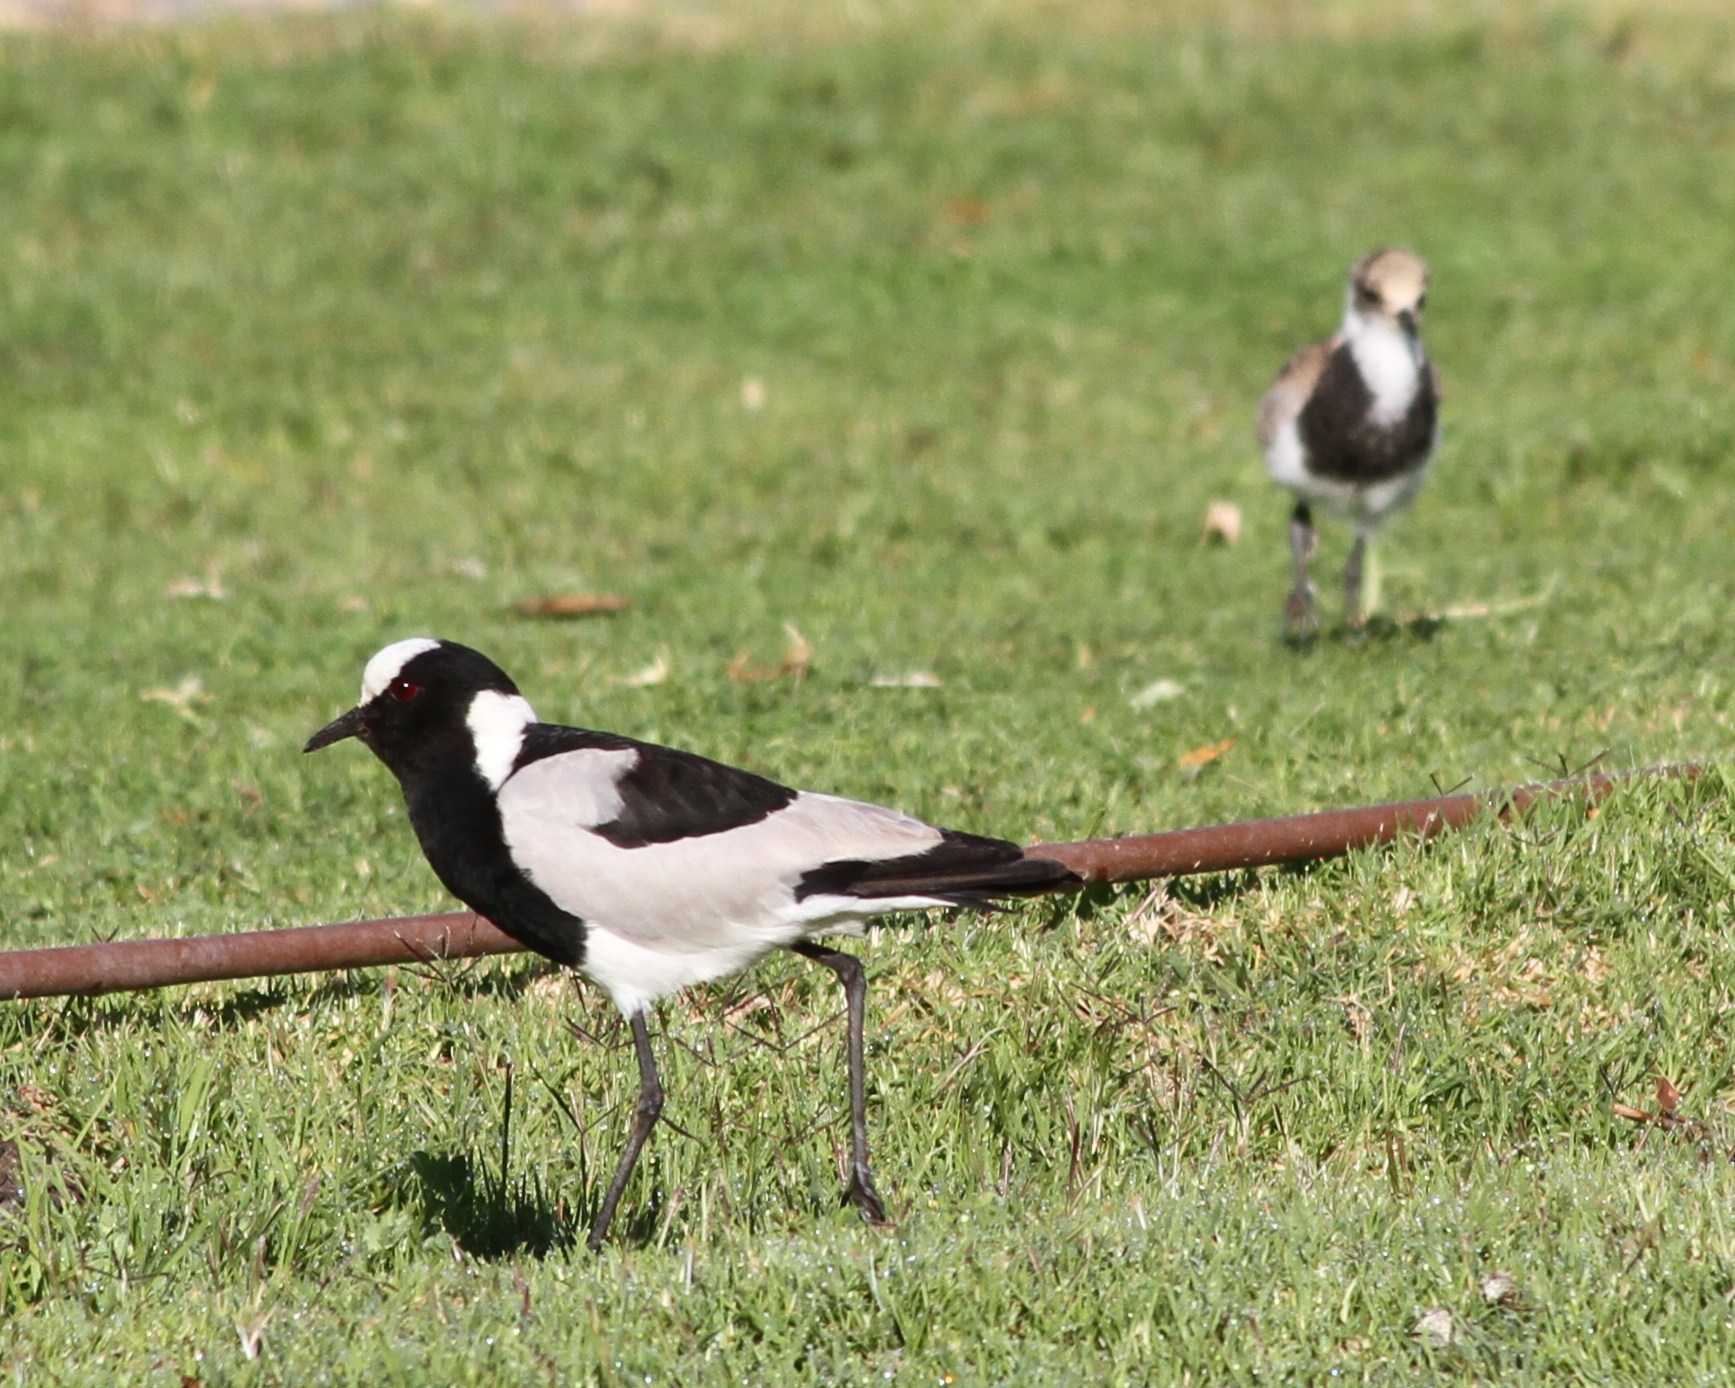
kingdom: Animalia
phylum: Chordata
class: Aves
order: Charadriiformes
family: Charadriidae
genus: Vanellus
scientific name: Vanellus armatus
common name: Blacksmith lapwing
